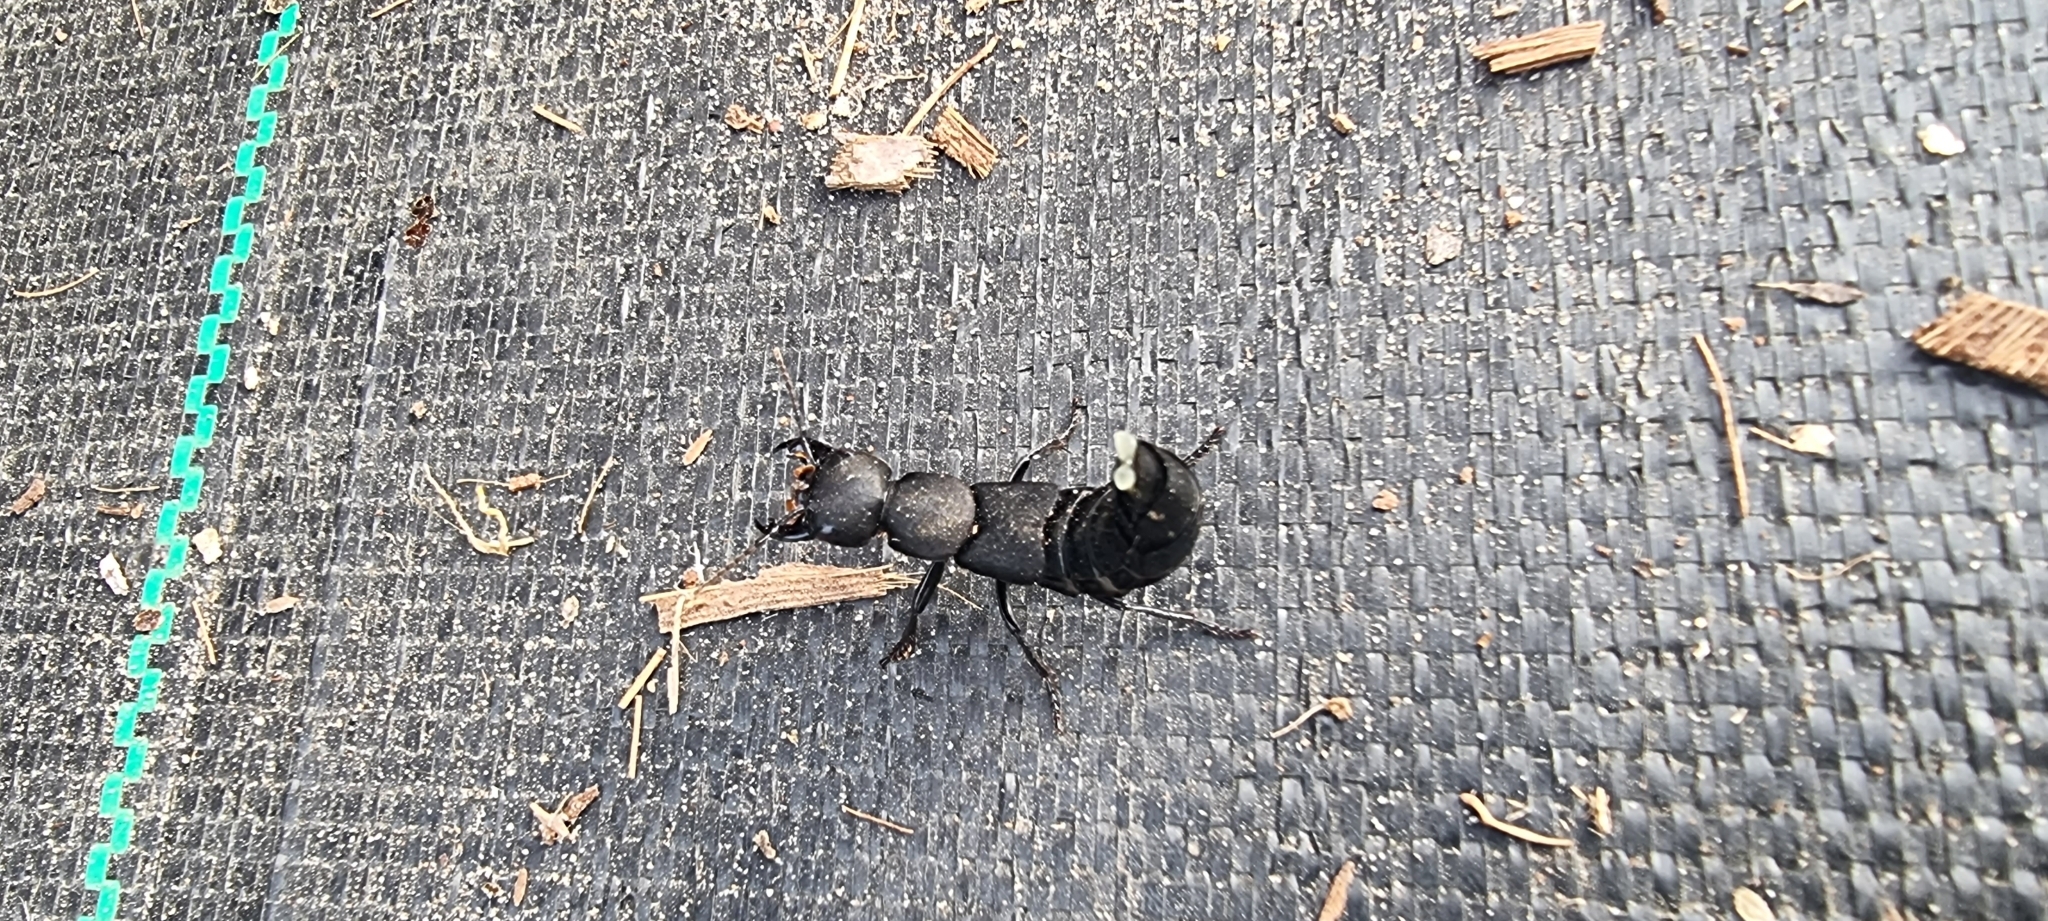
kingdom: Animalia
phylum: Arthropoda
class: Insecta
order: Coleoptera
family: Staphylinidae
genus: Ocypus
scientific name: Ocypus olens
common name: Devil's coach-horse
